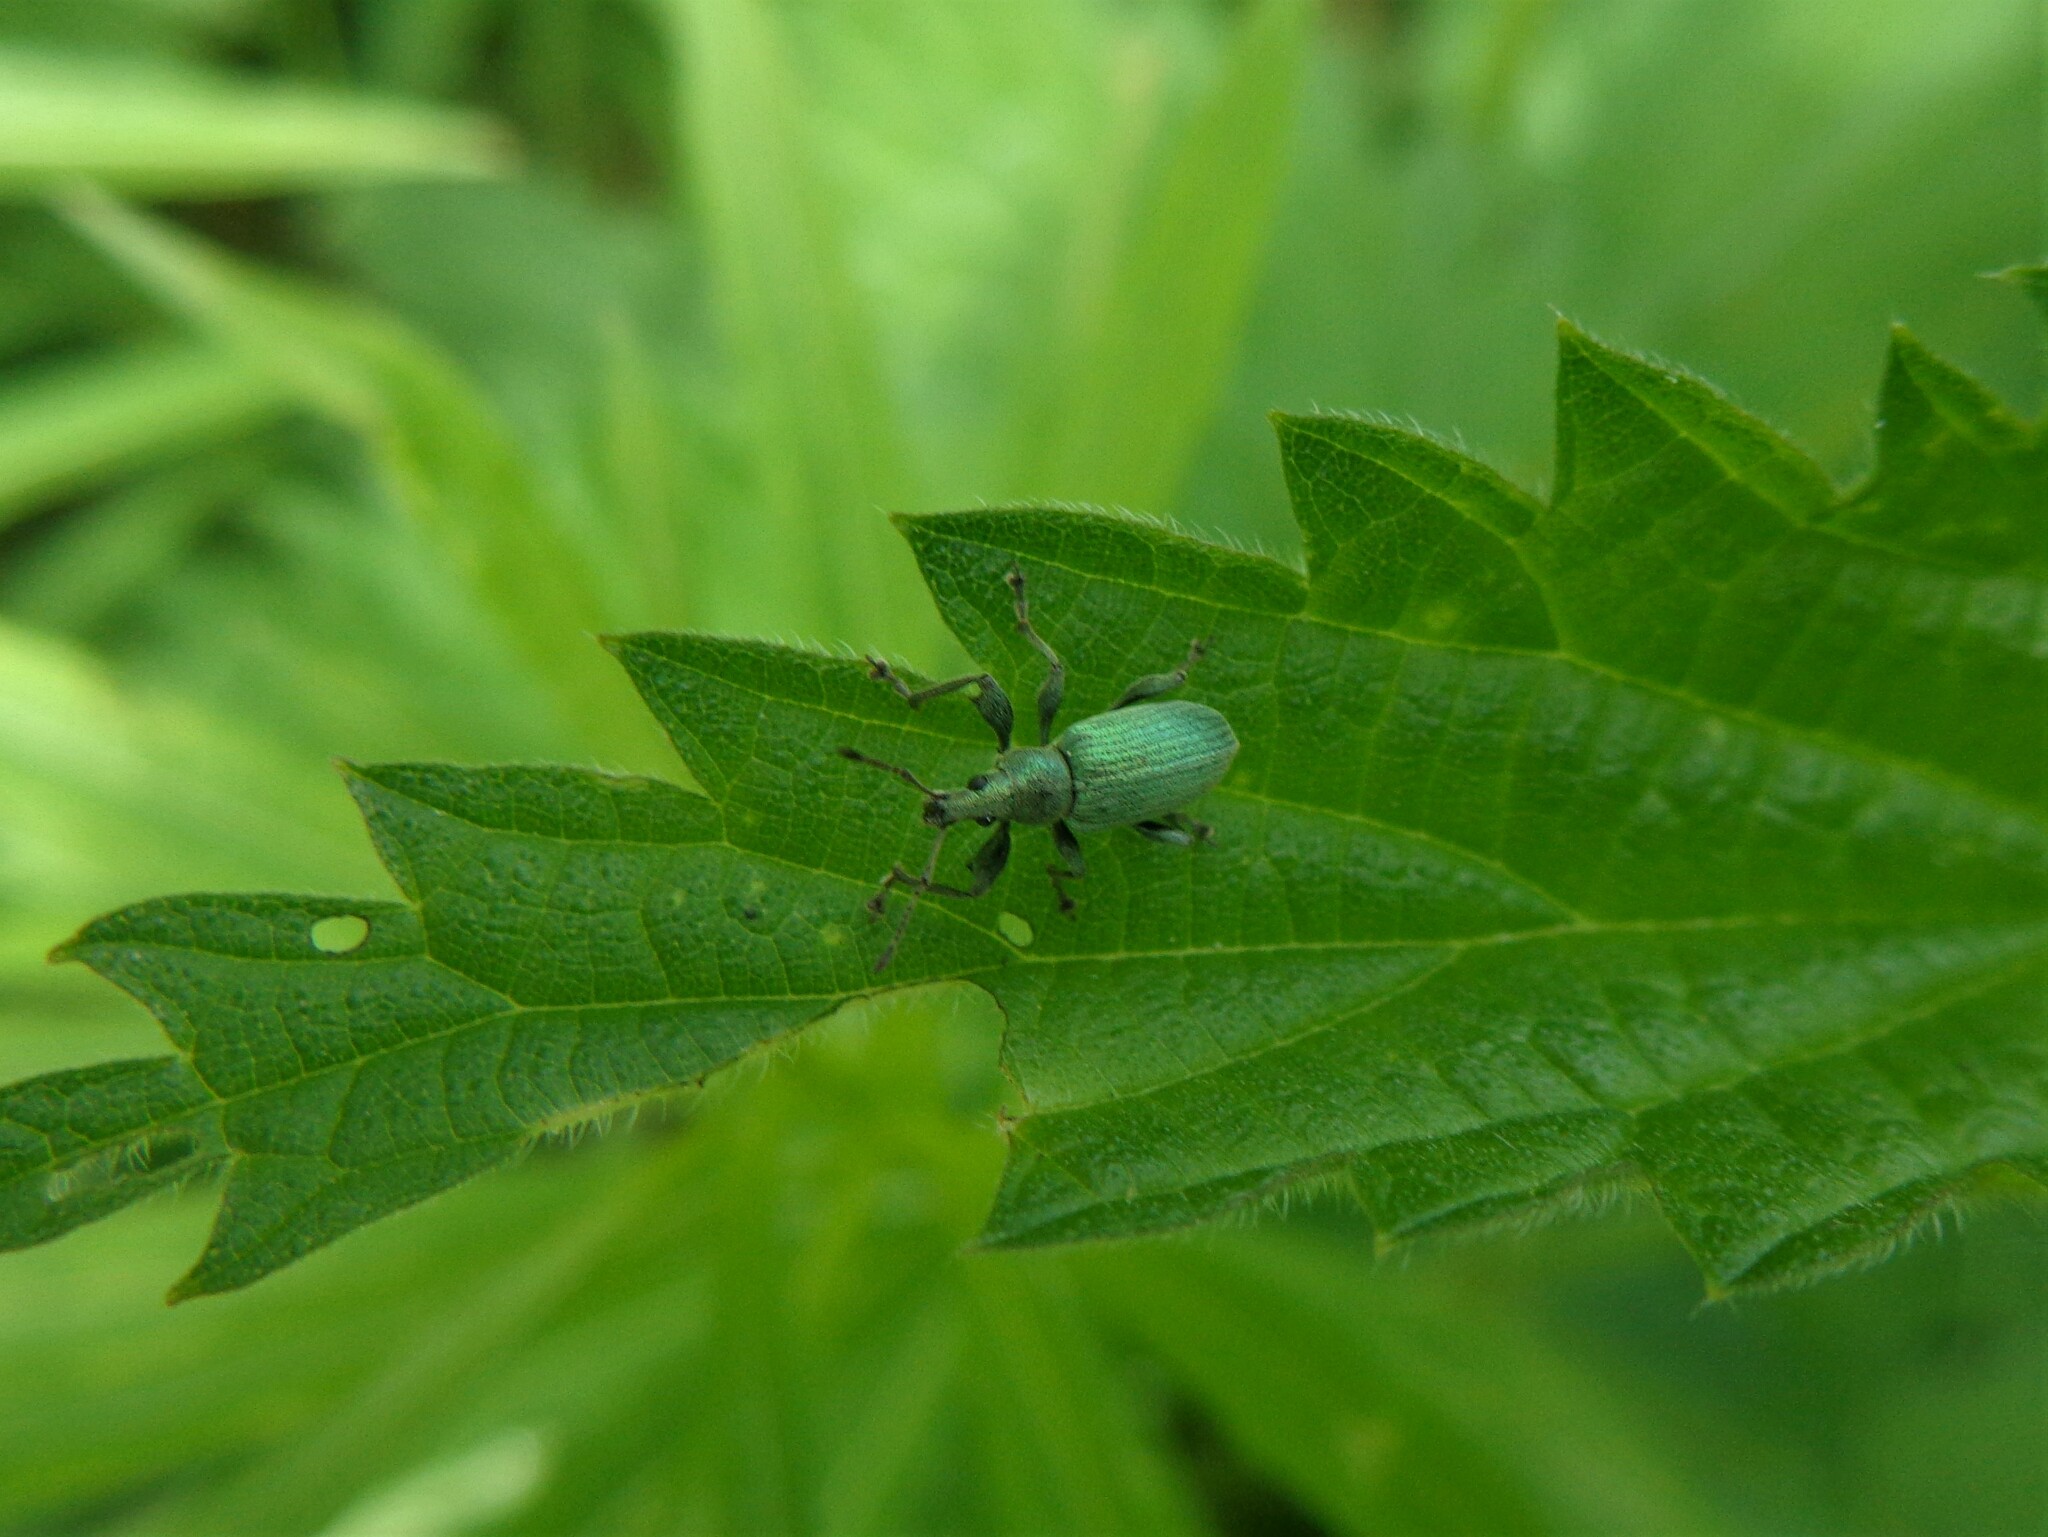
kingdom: Animalia
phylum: Arthropoda
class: Insecta
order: Coleoptera
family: Curculionidae
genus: Phyllobius
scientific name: Phyllobius pomaceus
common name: Green nettle weevil
